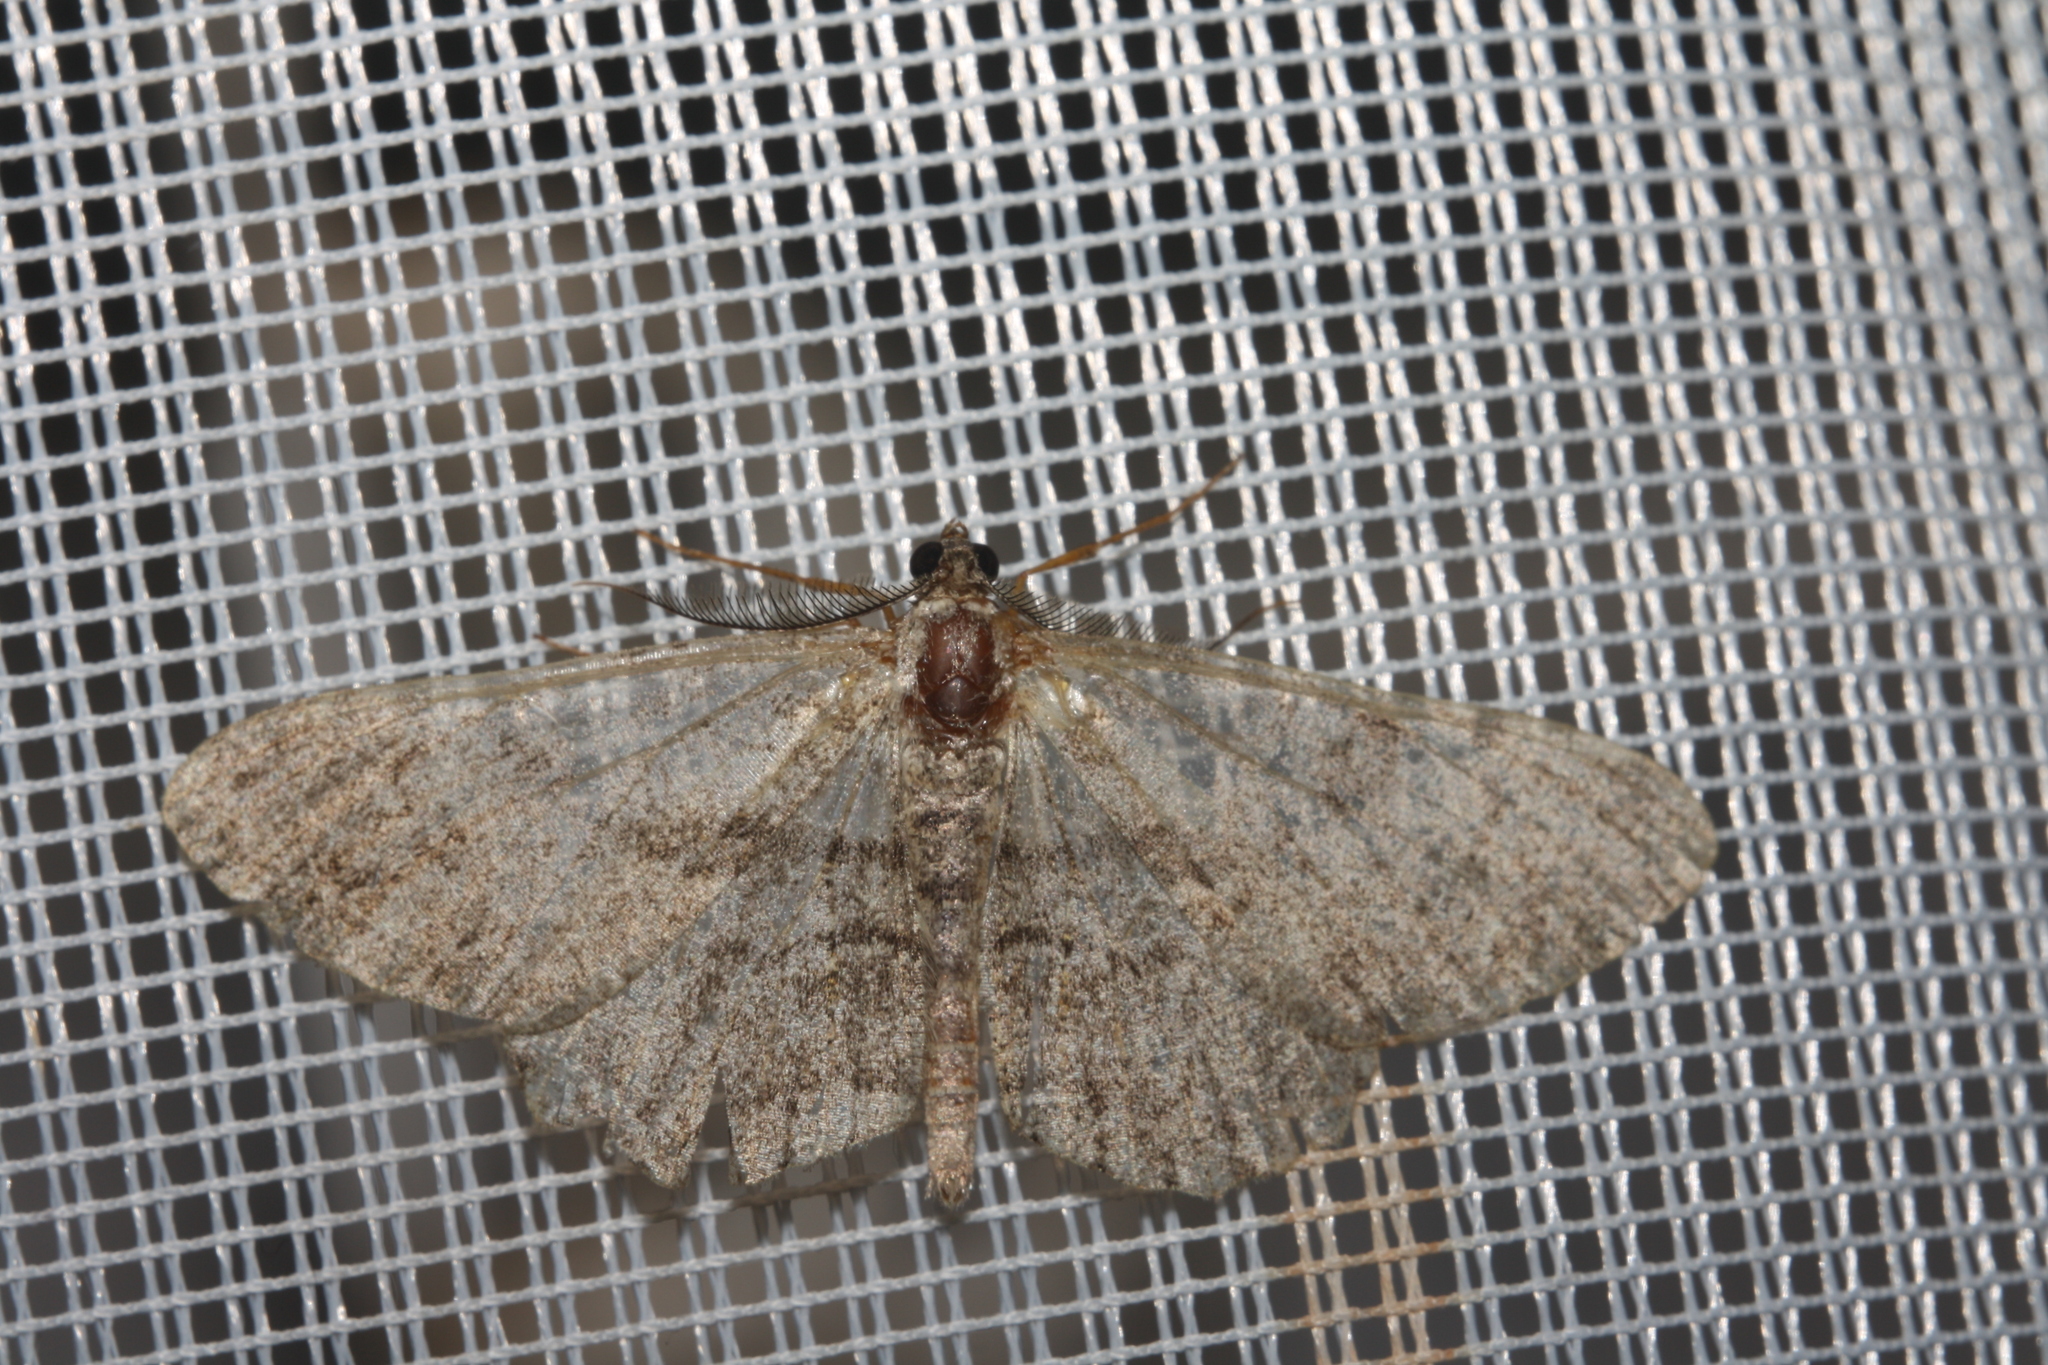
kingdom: Animalia
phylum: Arthropoda
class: Insecta
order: Lepidoptera
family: Geometridae
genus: Peribatodes
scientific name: Peribatodes rhomboidaria
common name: Willow beauty
